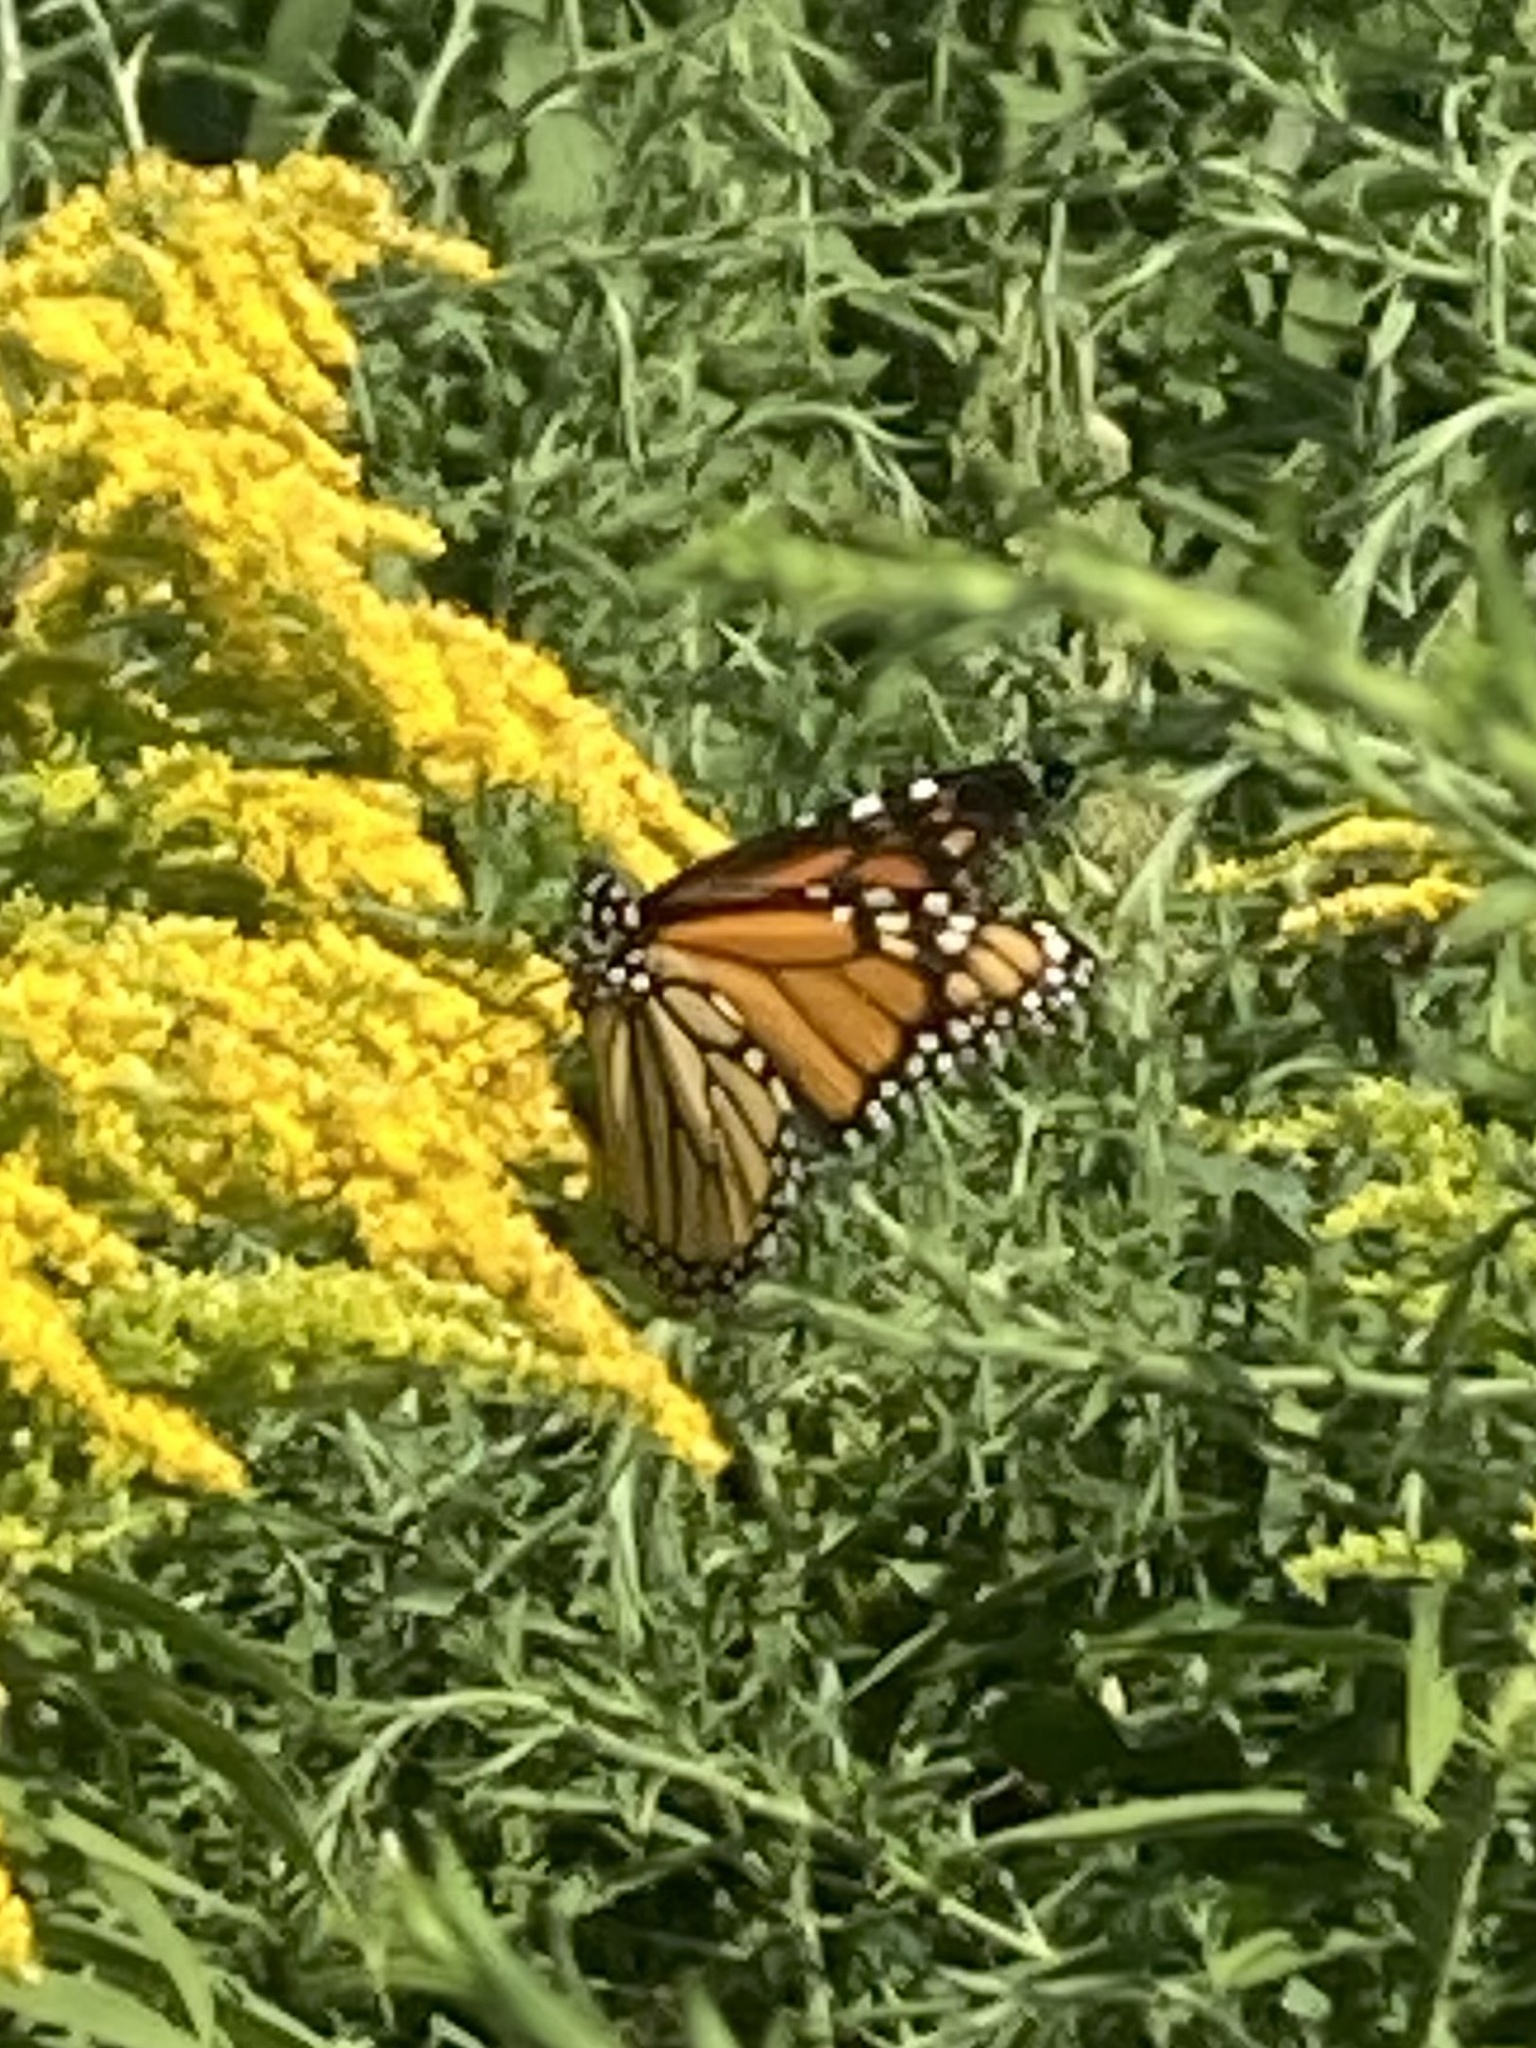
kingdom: Animalia
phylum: Arthropoda
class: Insecta
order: Lepidoptera
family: Nymphalidae
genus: Danaus
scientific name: Danaus plexippus
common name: Monarch
